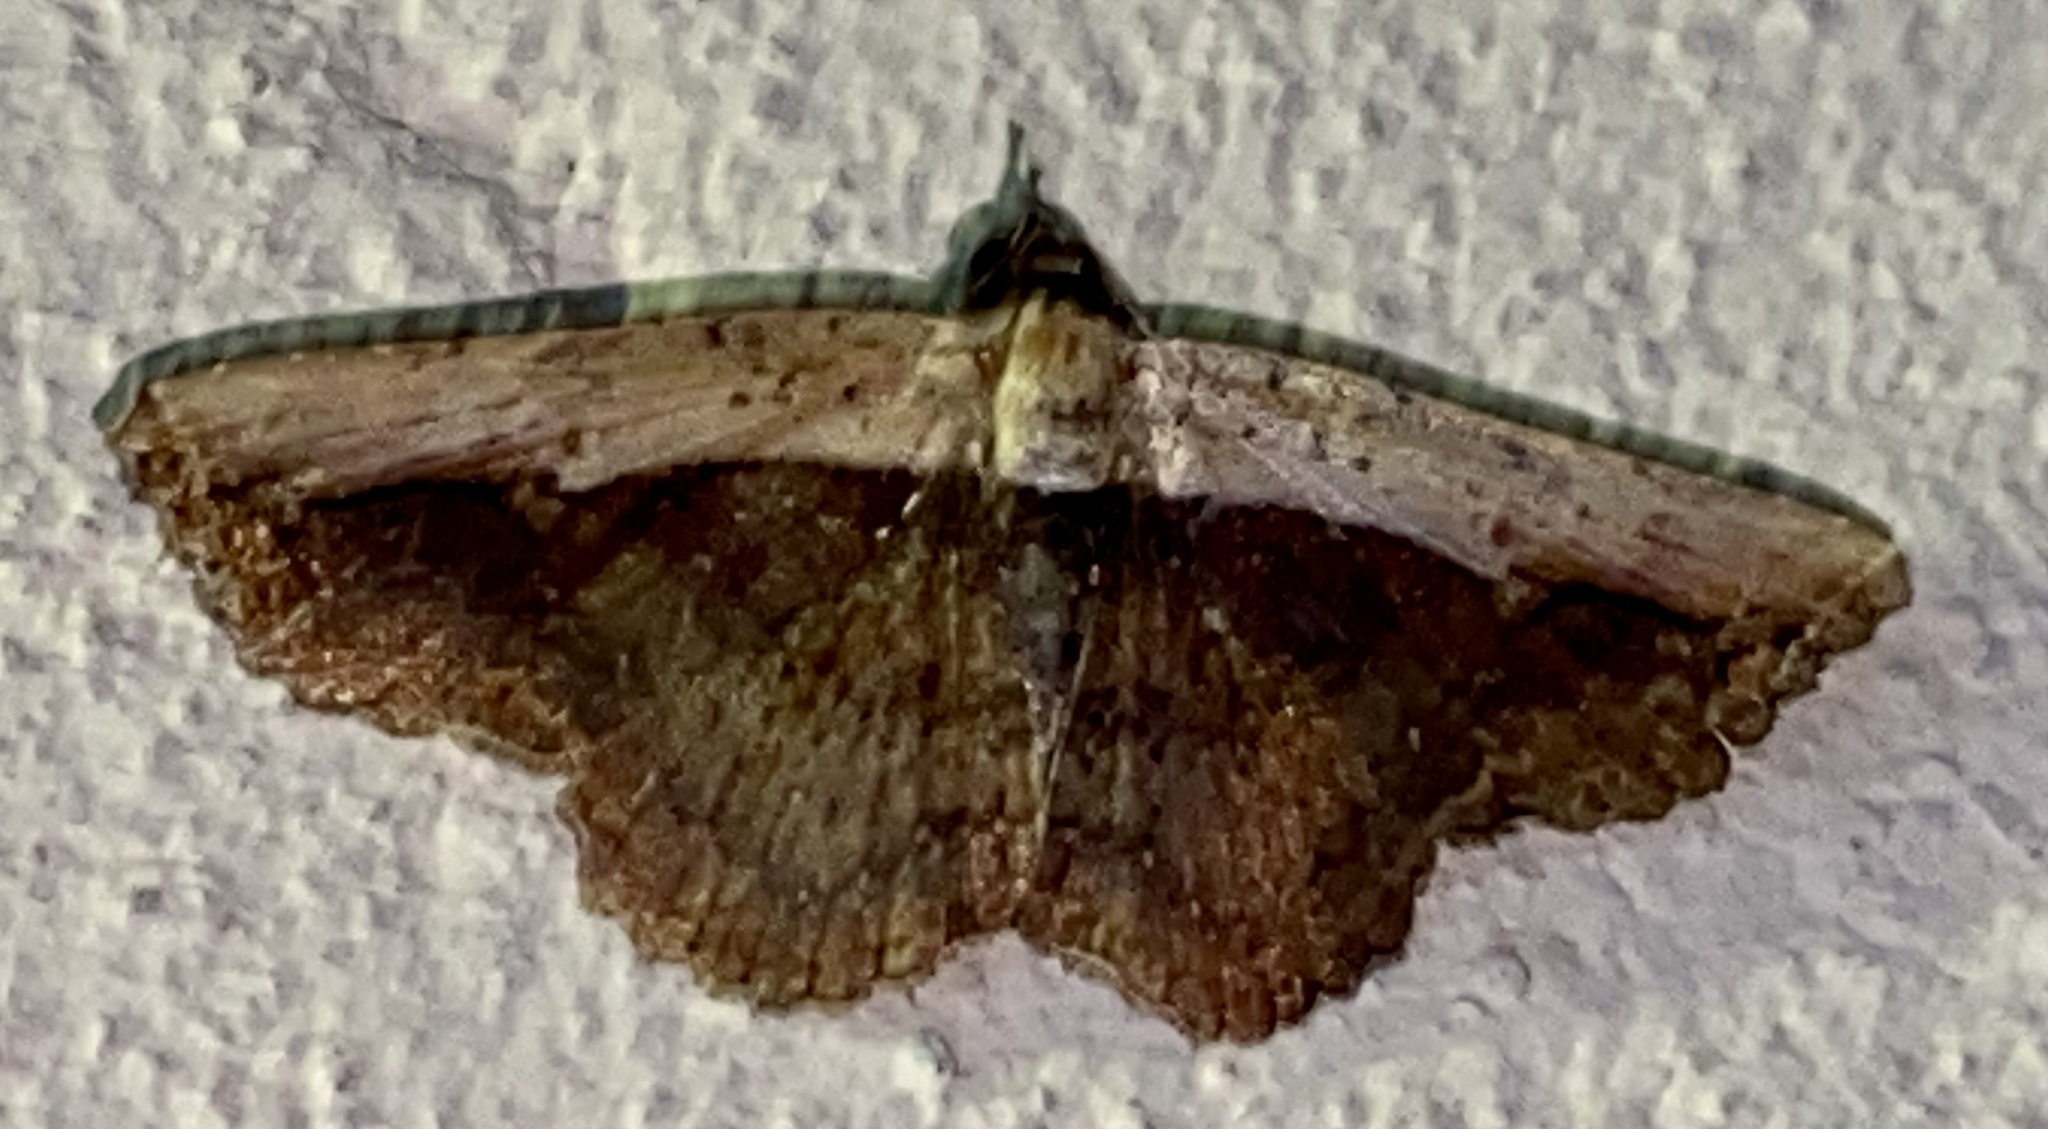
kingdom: Animalia
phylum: Arthropoda
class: Insecta
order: Lepidoptera
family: Erebidae
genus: Selenisa
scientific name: Selenisa sueroides
